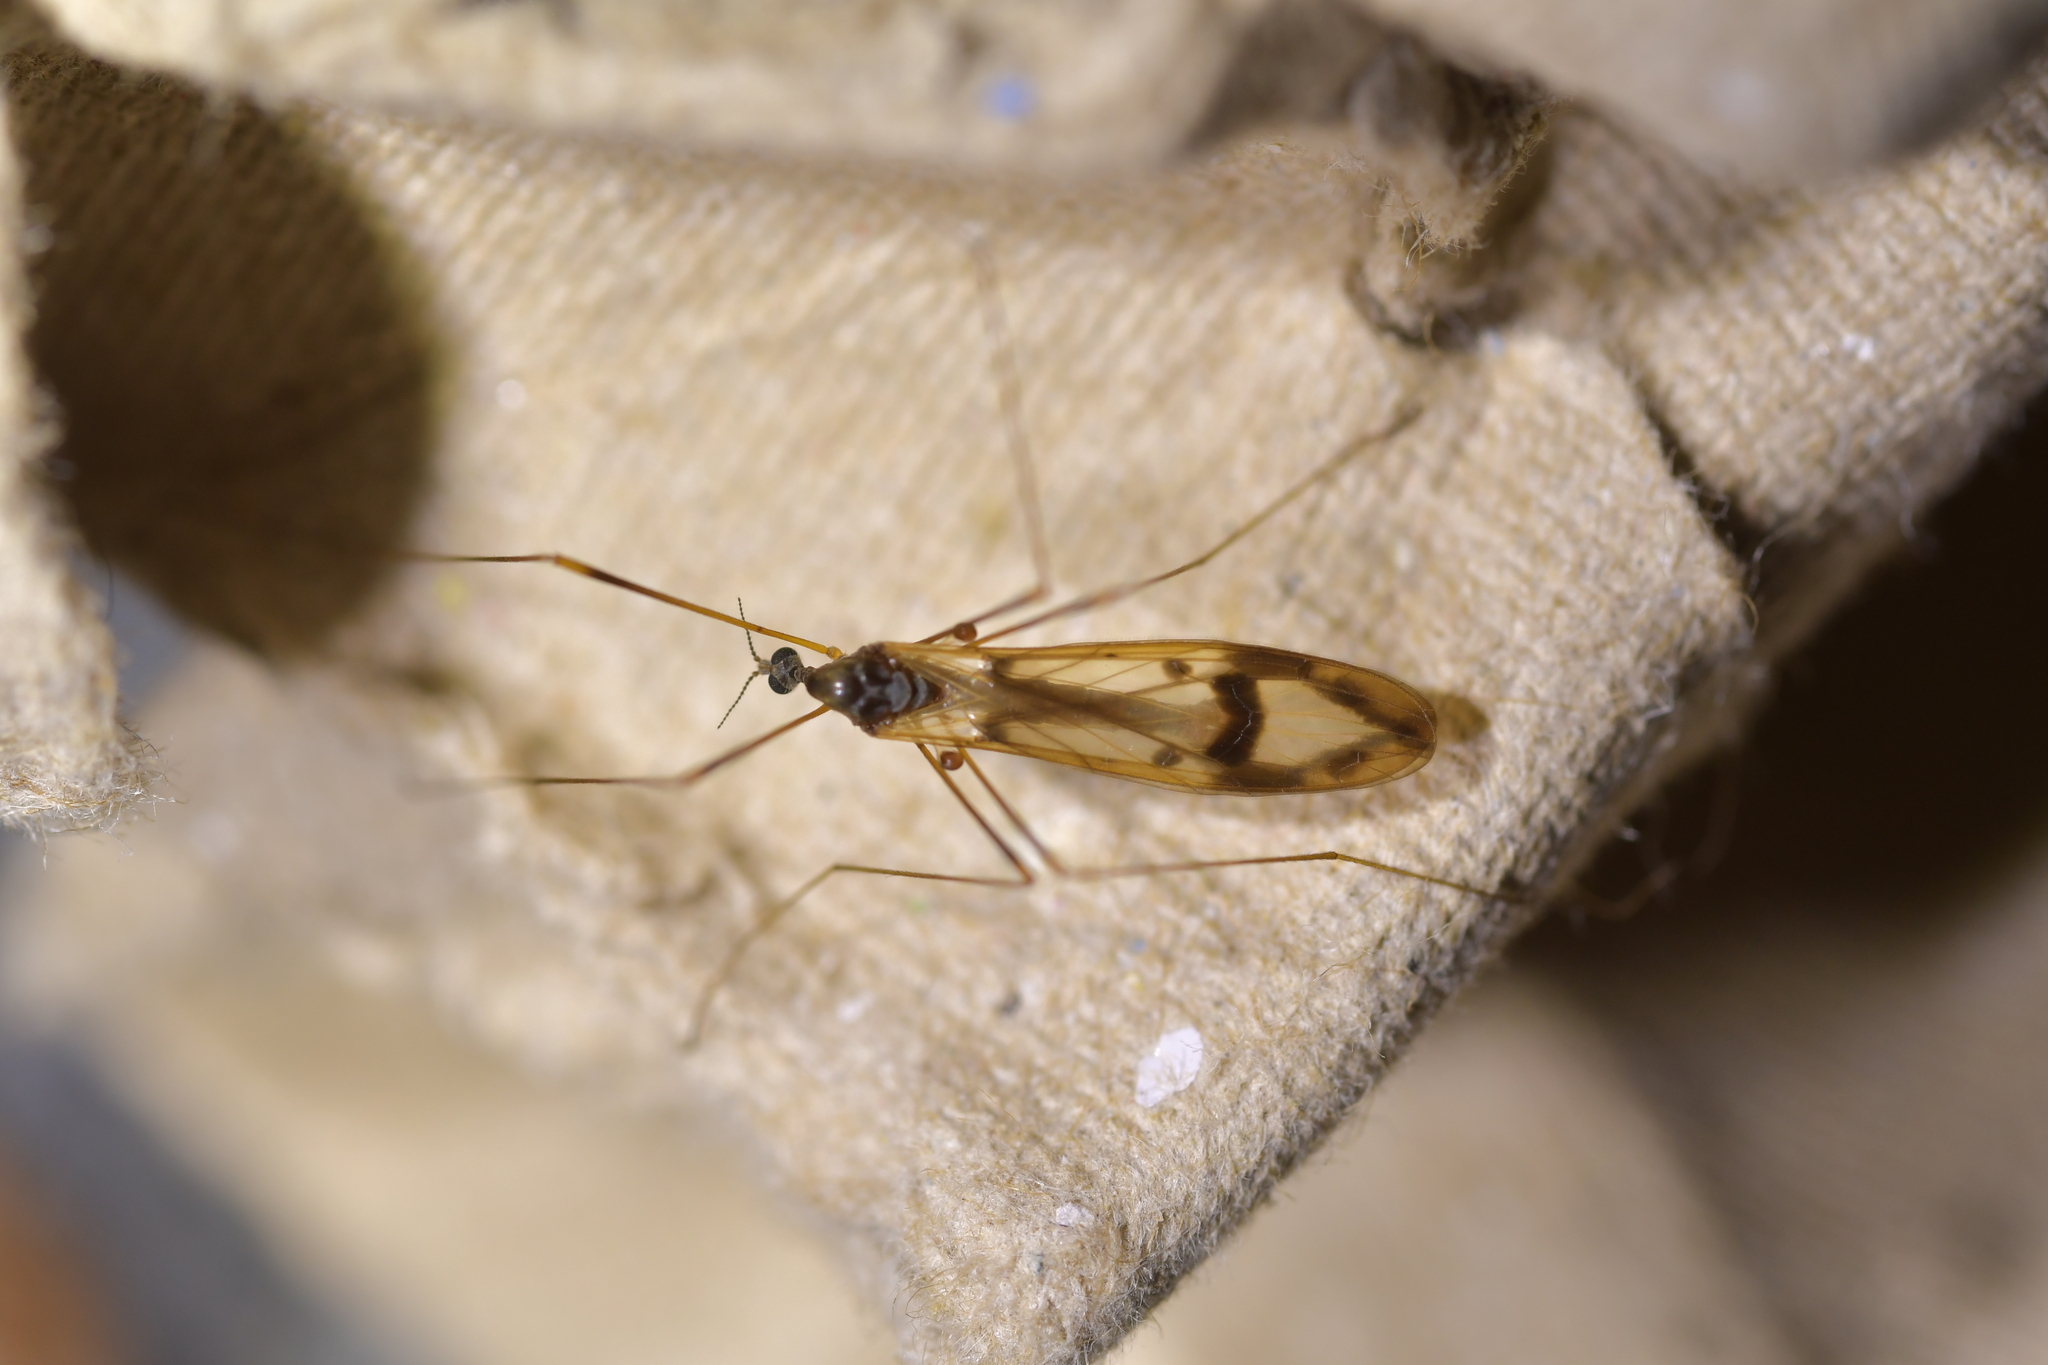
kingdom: Animalia
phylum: Arthropoda
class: Insecta
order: Diptera
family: Limoniidae
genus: Dicranomyia
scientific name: Dicranomyia repanda
